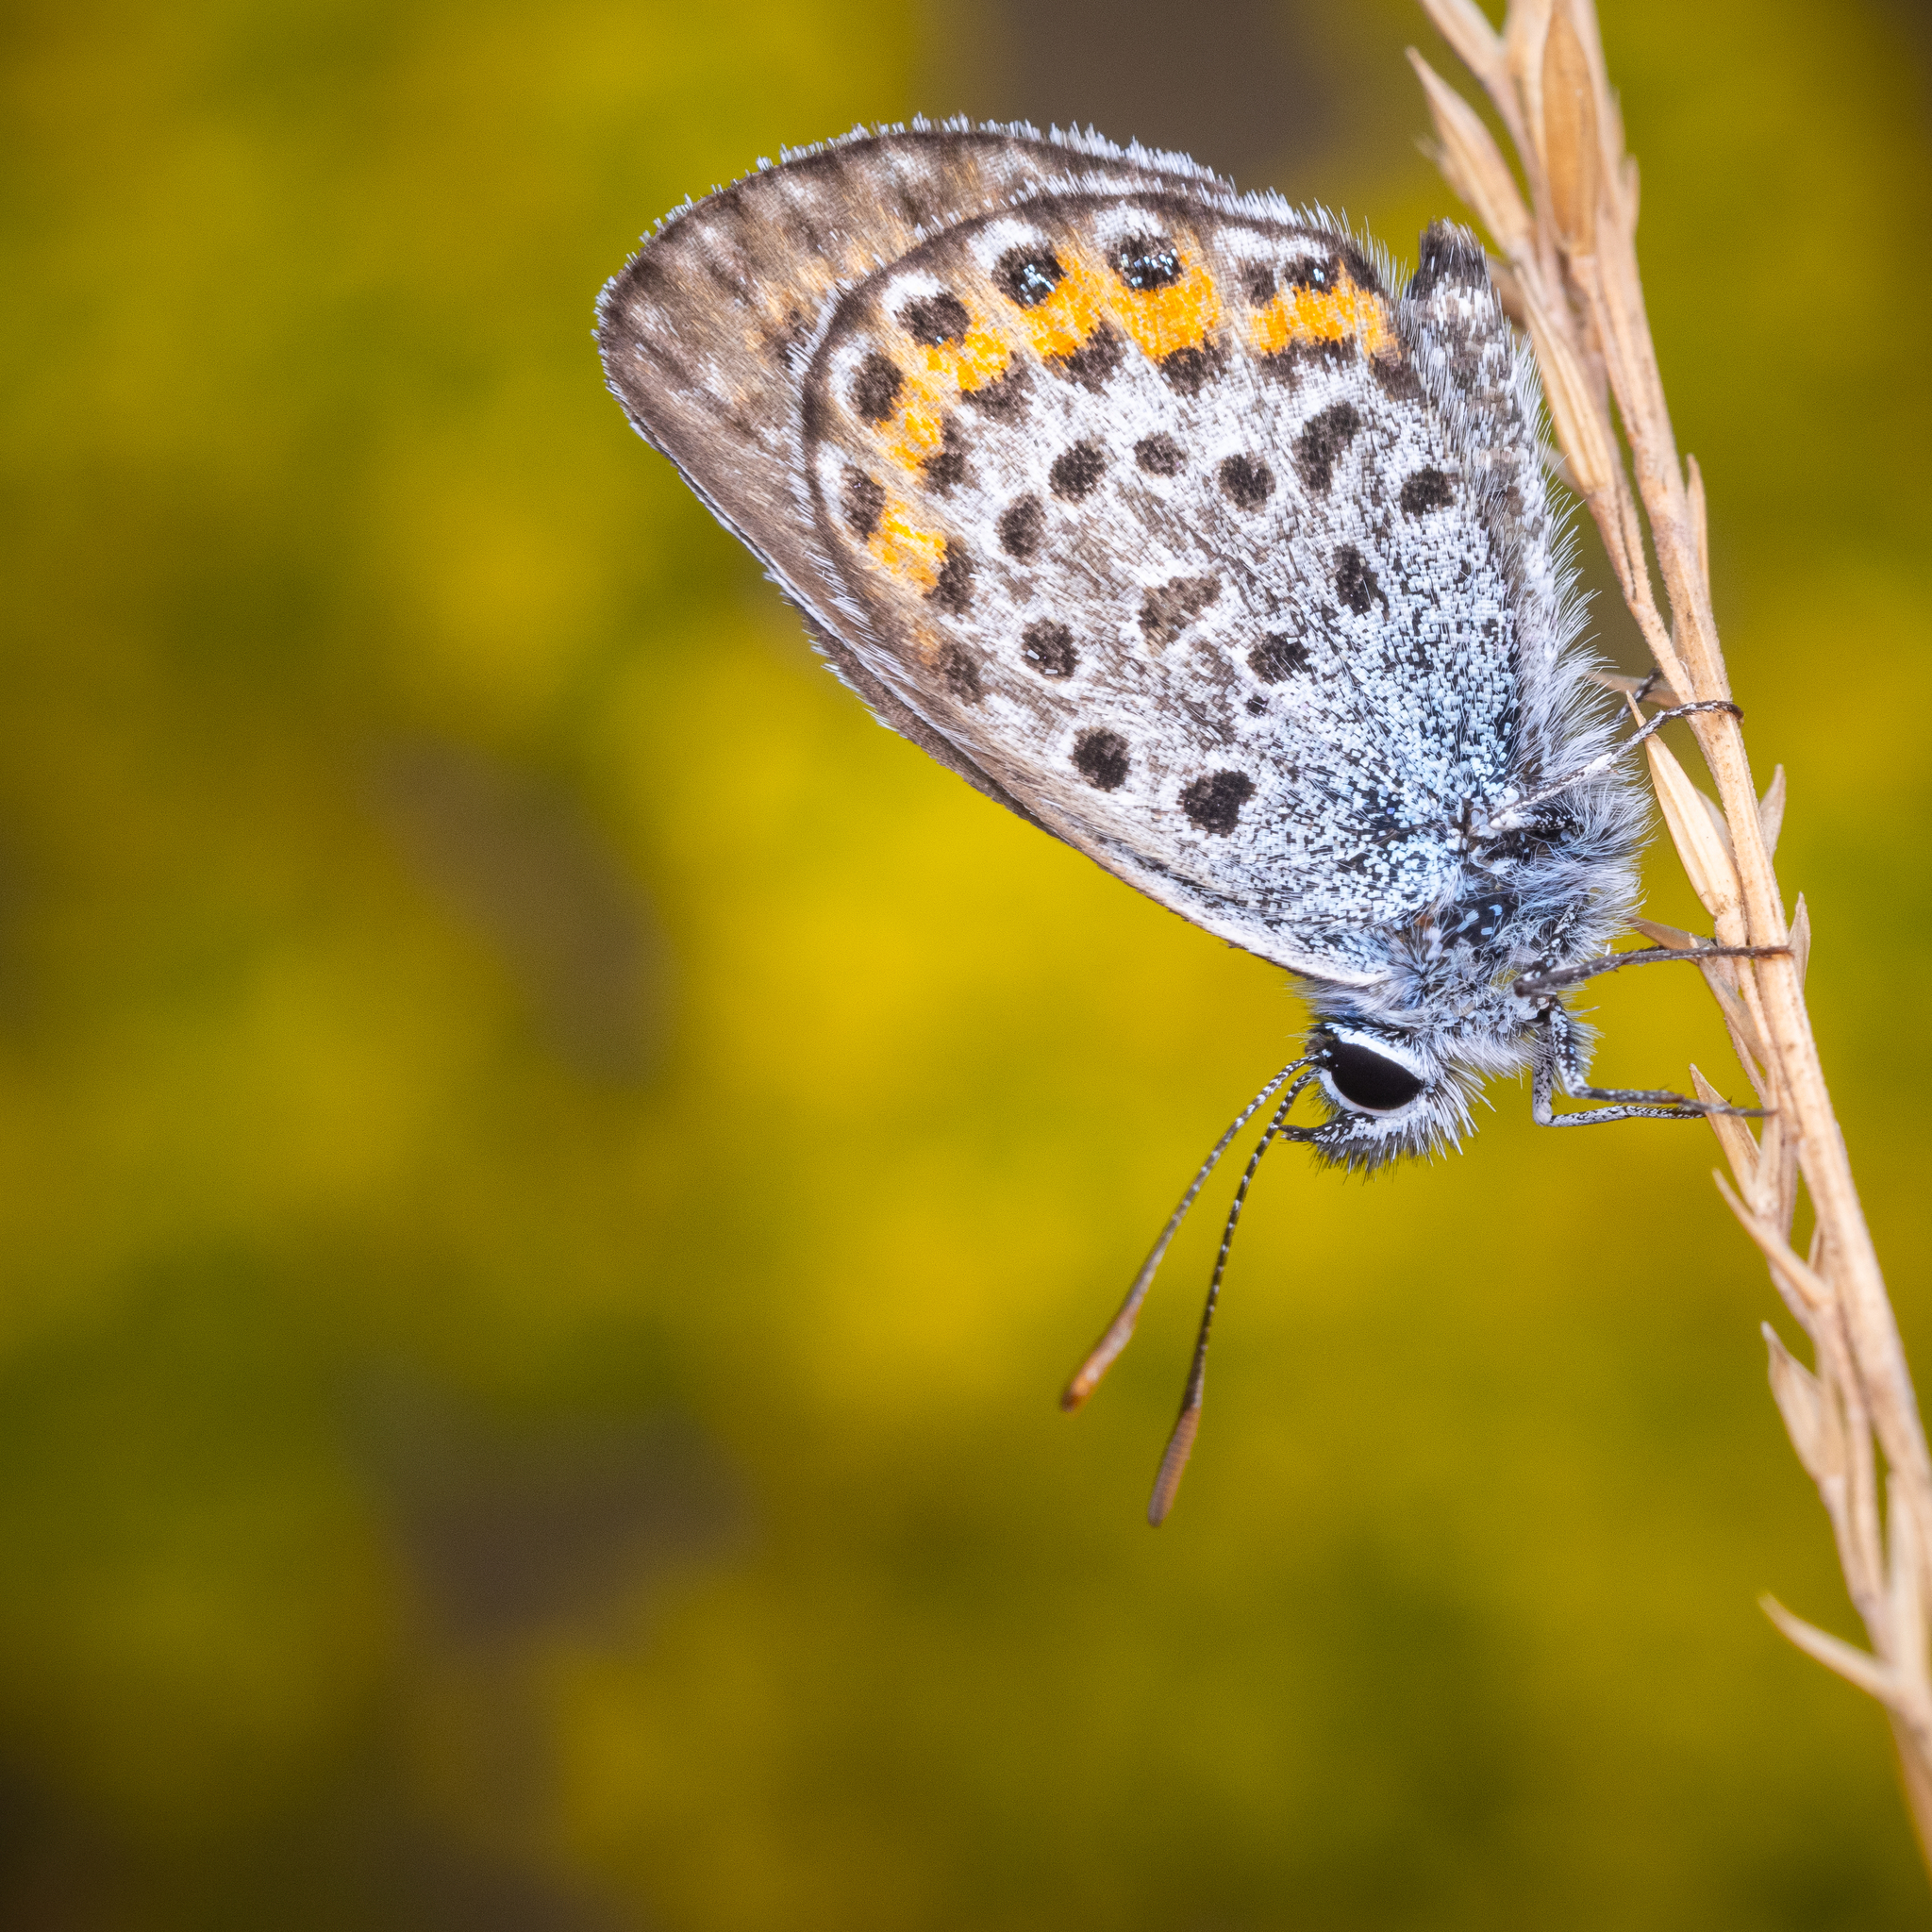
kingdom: Animalia
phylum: Arthropoda
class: Insecta
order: Lepidoptera
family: Lycaenidae
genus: Plebejus
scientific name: Plebejus argus
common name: Silver-studded blue
